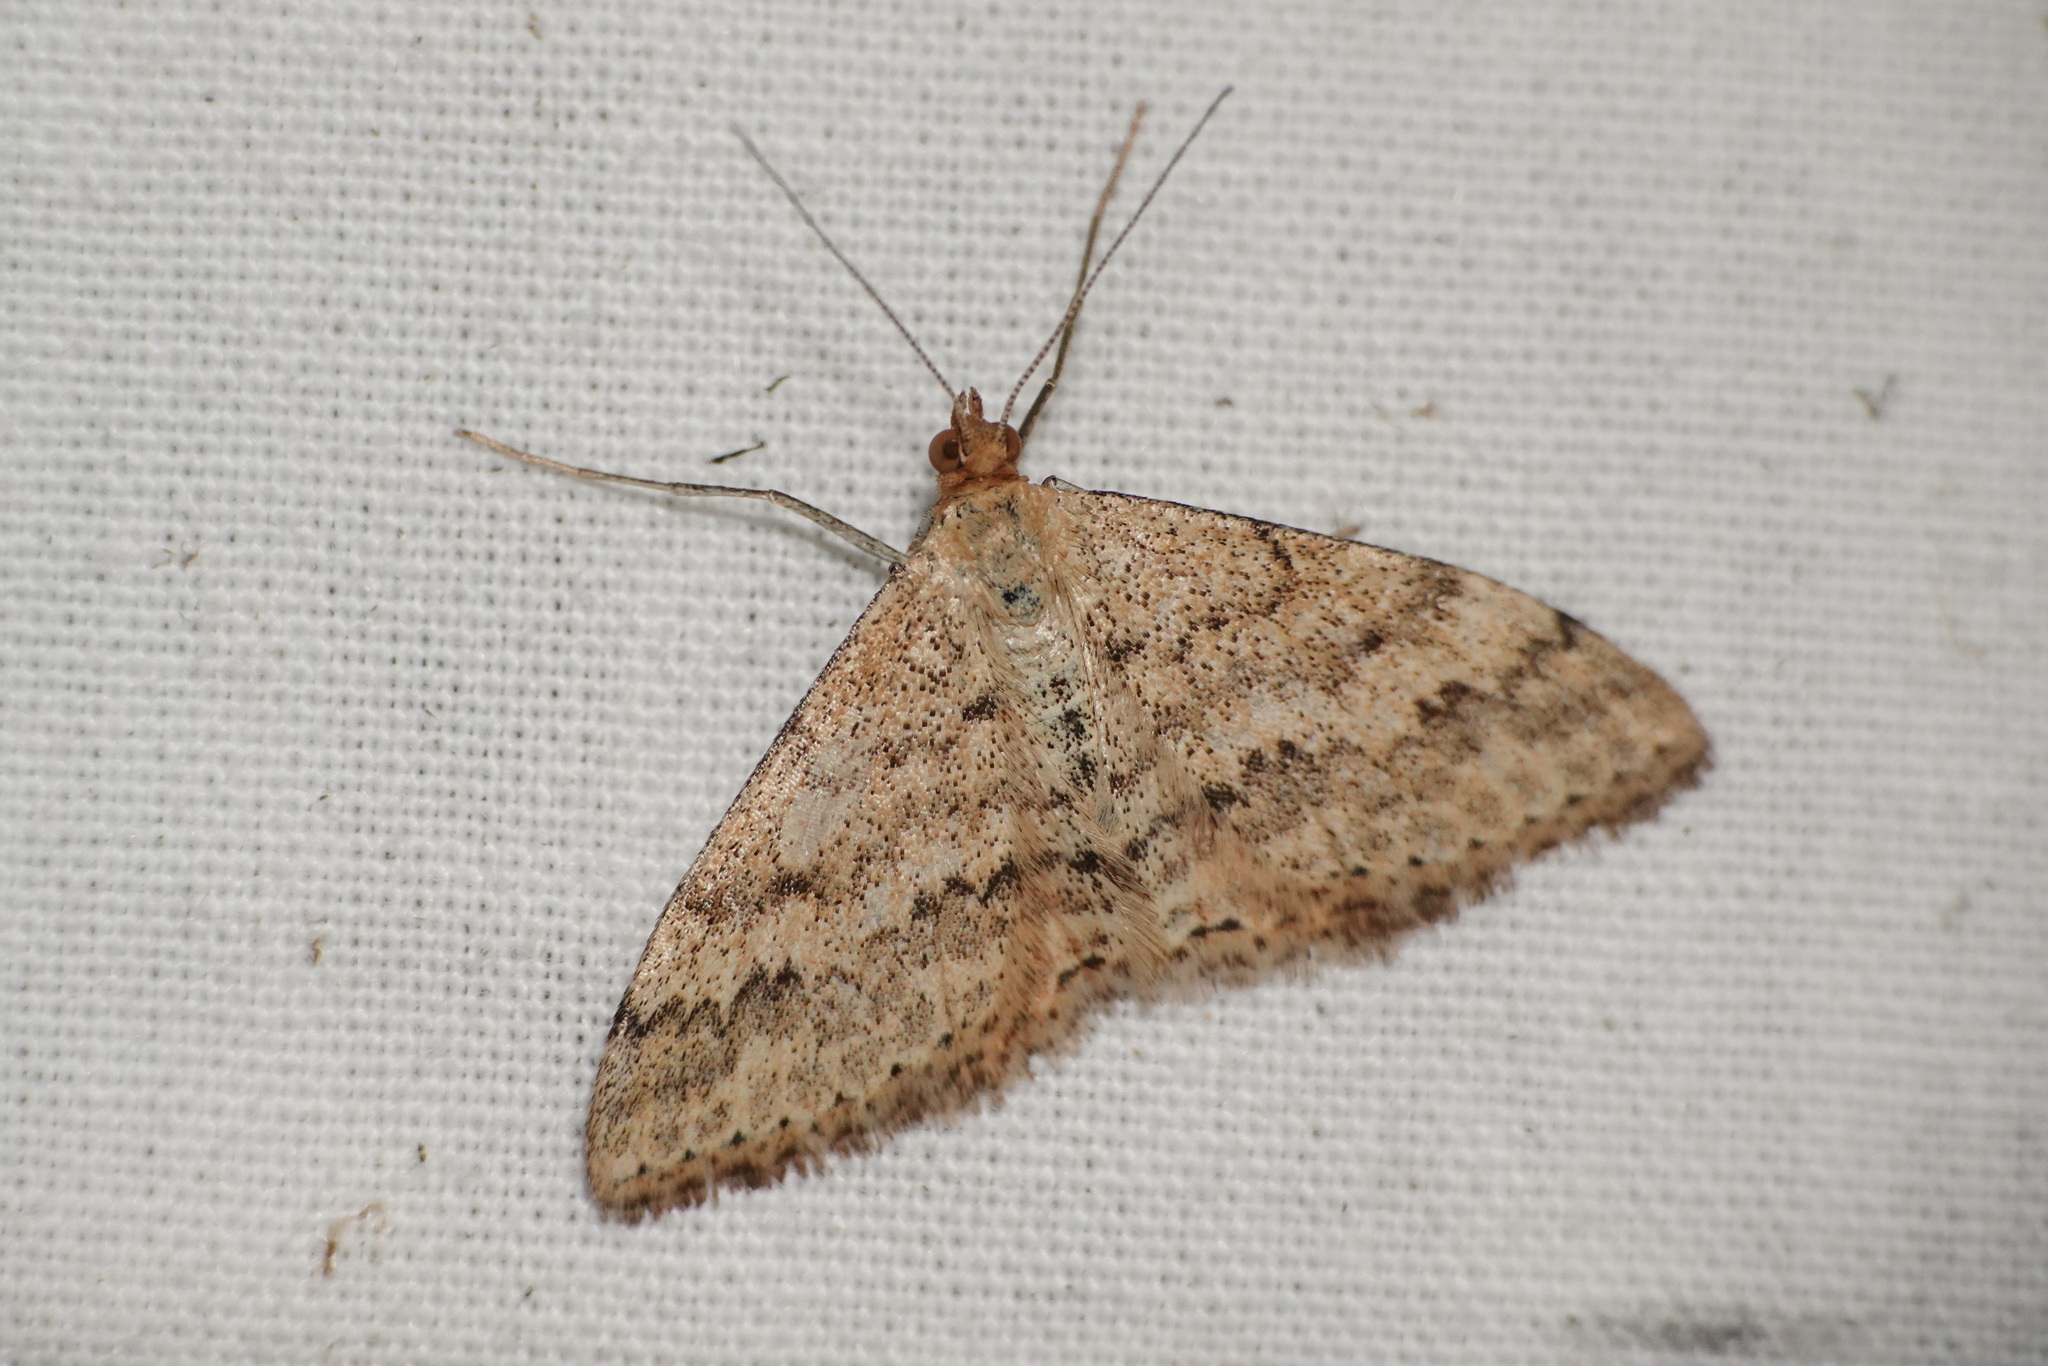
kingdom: Animalia
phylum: Arthropoda
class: Insecta
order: Lepidoptera
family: Geometridae
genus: Scopula
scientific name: Scopula rubraria
